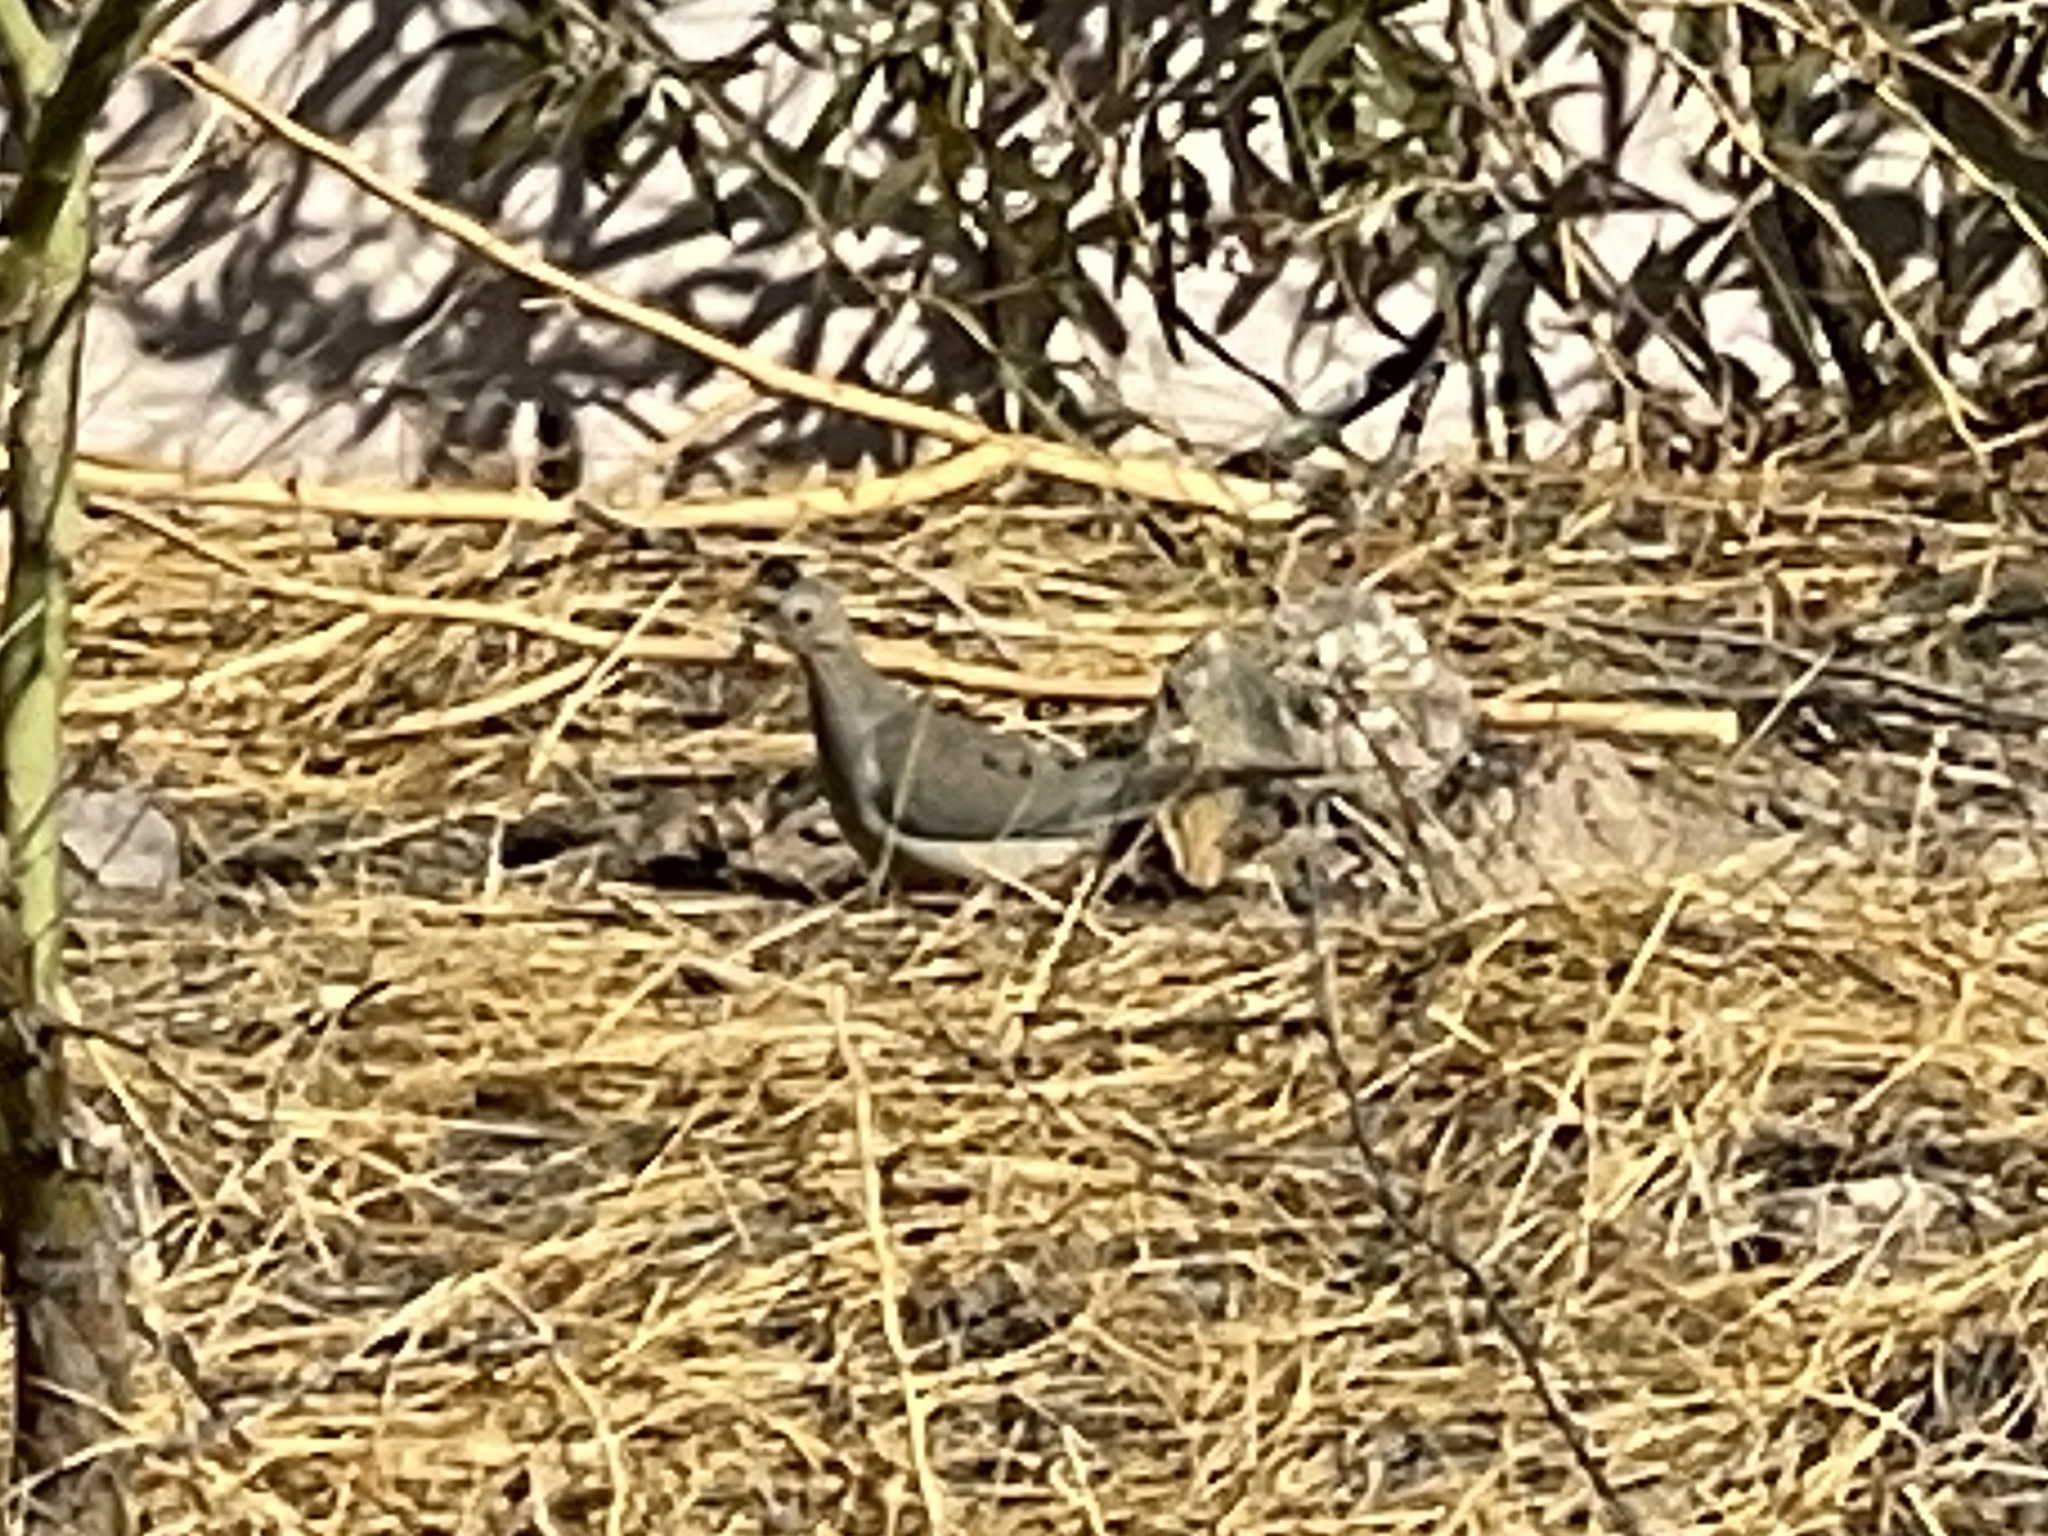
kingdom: Animalia
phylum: Chordata
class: Aves
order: Columbiformes
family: Columbidae
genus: Zenaida
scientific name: Zenaida macroura
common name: Mourning dove
